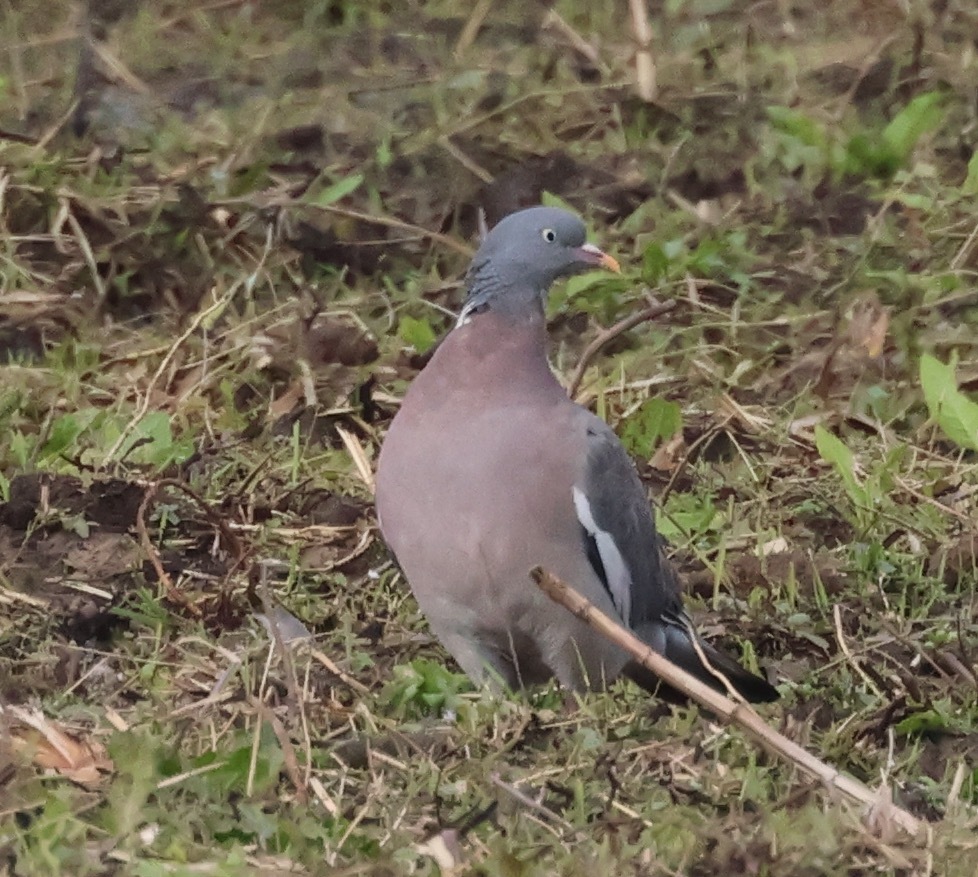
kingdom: Animalia
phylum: Chordata
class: Aves
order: Columbiformes
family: Columbidae
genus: Columba
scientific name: Columba palumbus
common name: Common wood pigeon
